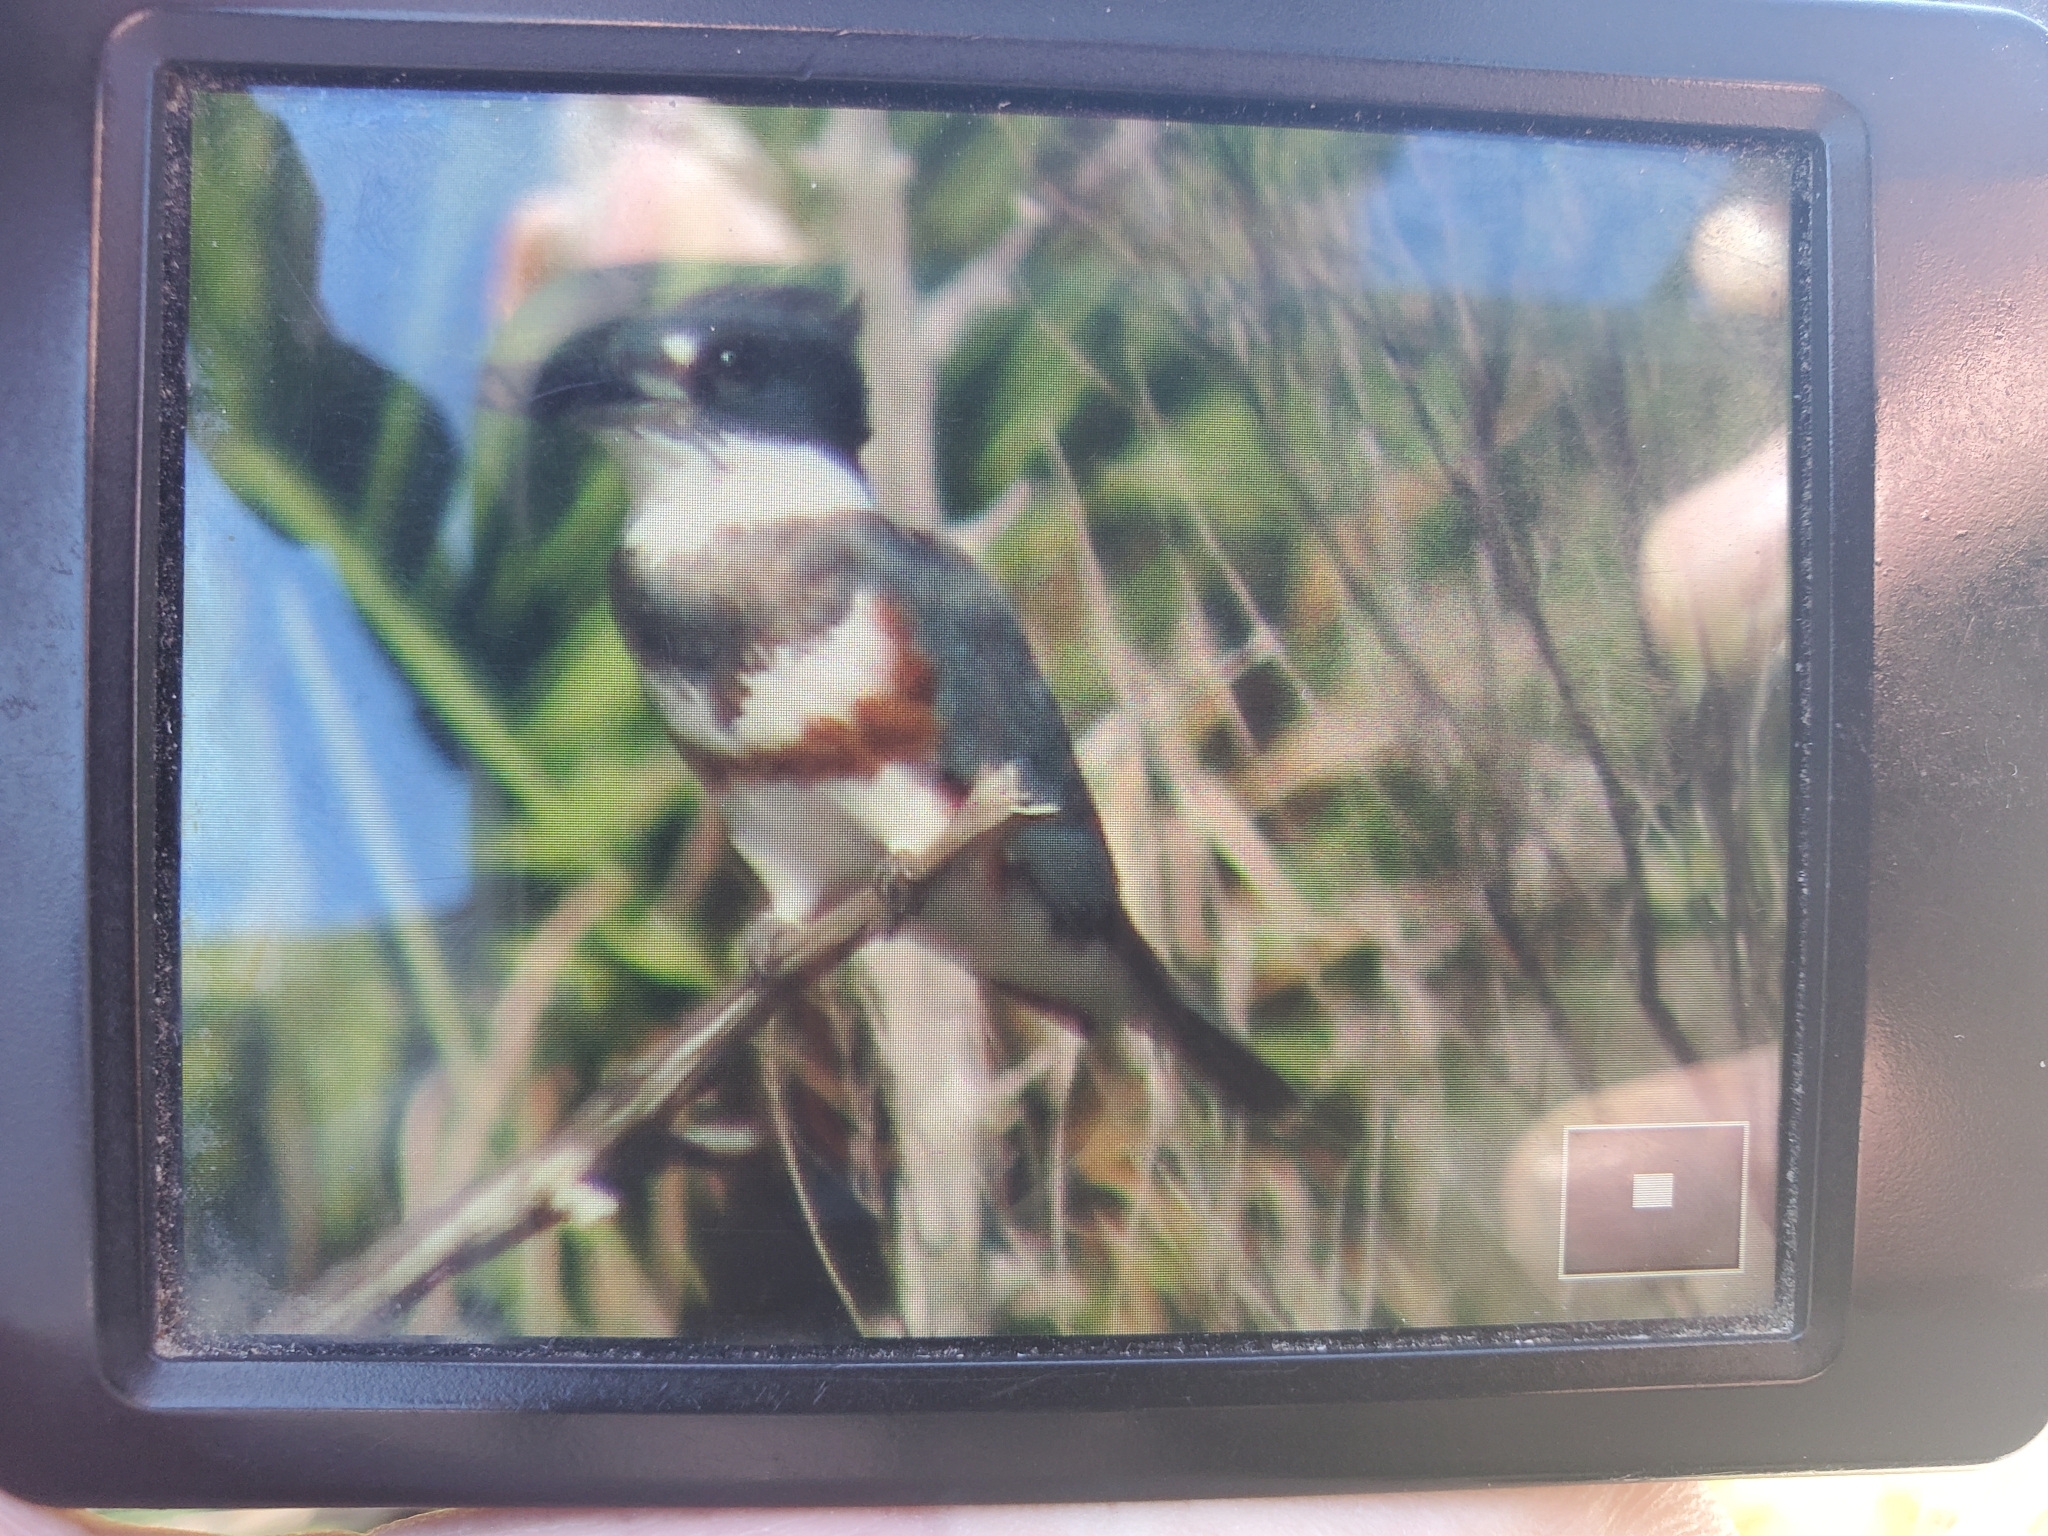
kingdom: Animalia
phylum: Chordata
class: Aves
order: Coraciiformes
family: Alcedinidae
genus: Megaceryle
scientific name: Megaceryle alcyon
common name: Belted kingfisher
